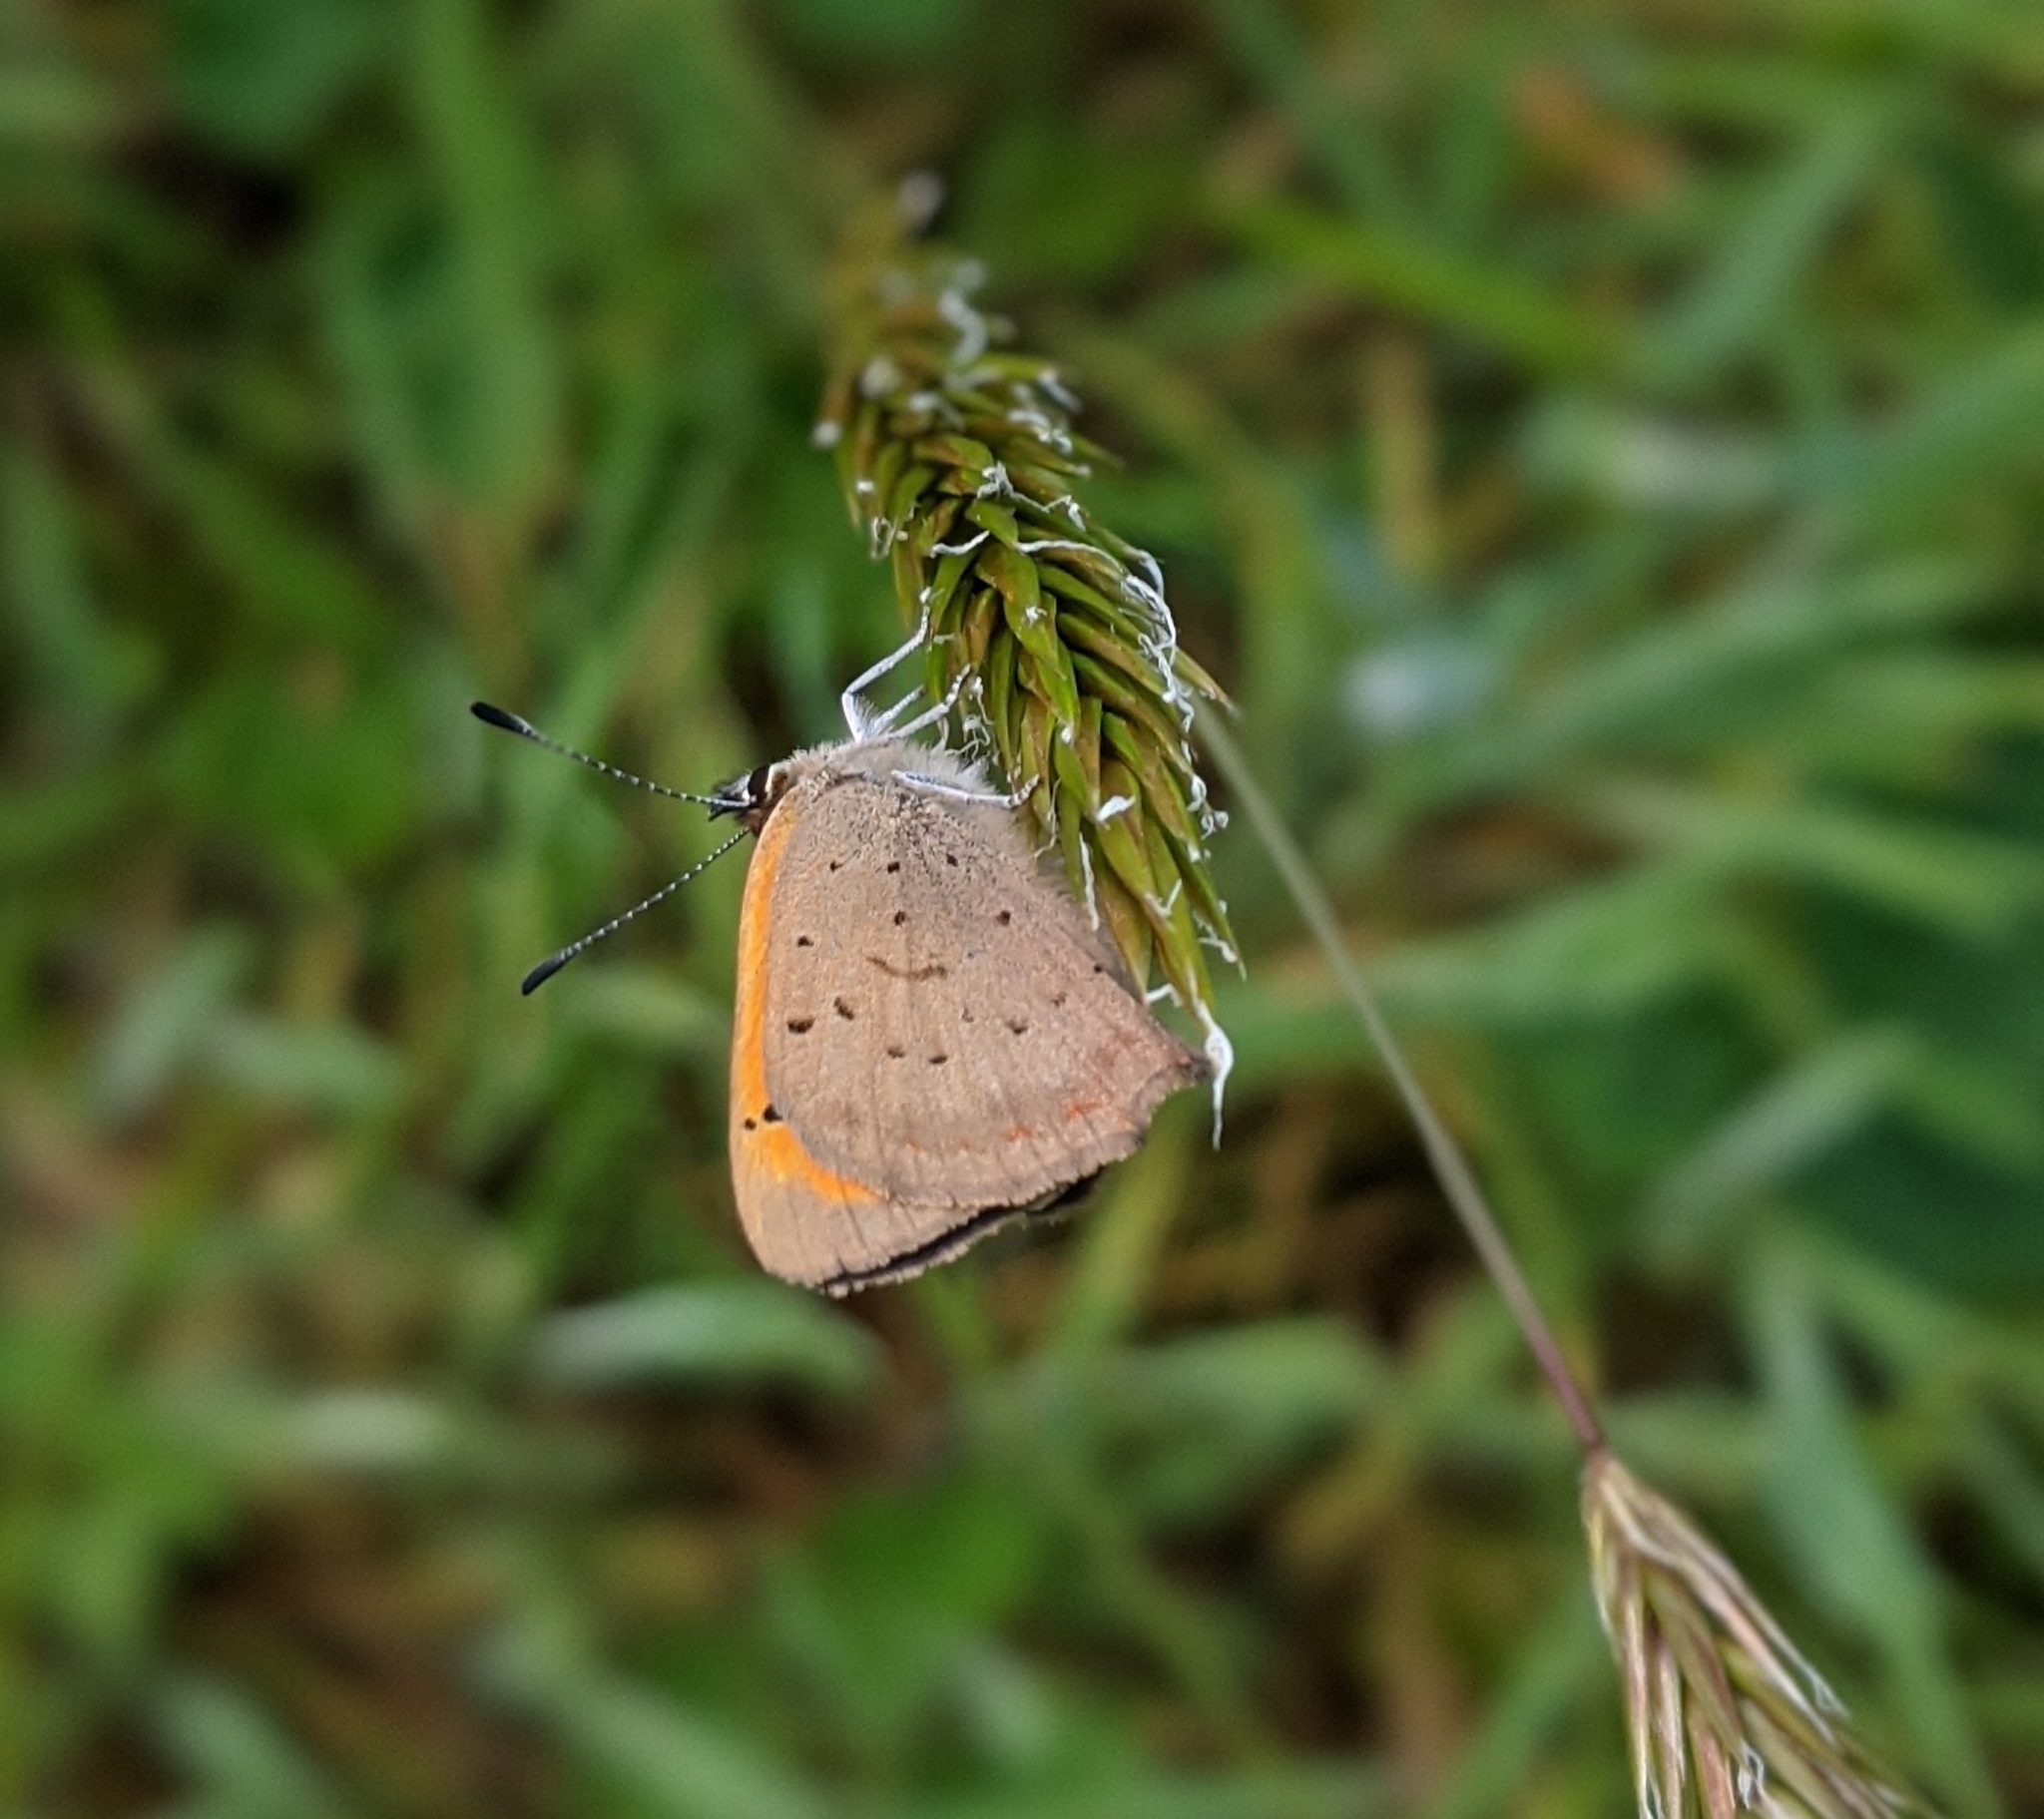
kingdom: Animalia
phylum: Arthropoda
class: Insecta
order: Lepidoptera
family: Lycaenidae
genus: Lycaena
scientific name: Lycaena phlaeas
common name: Small copper
